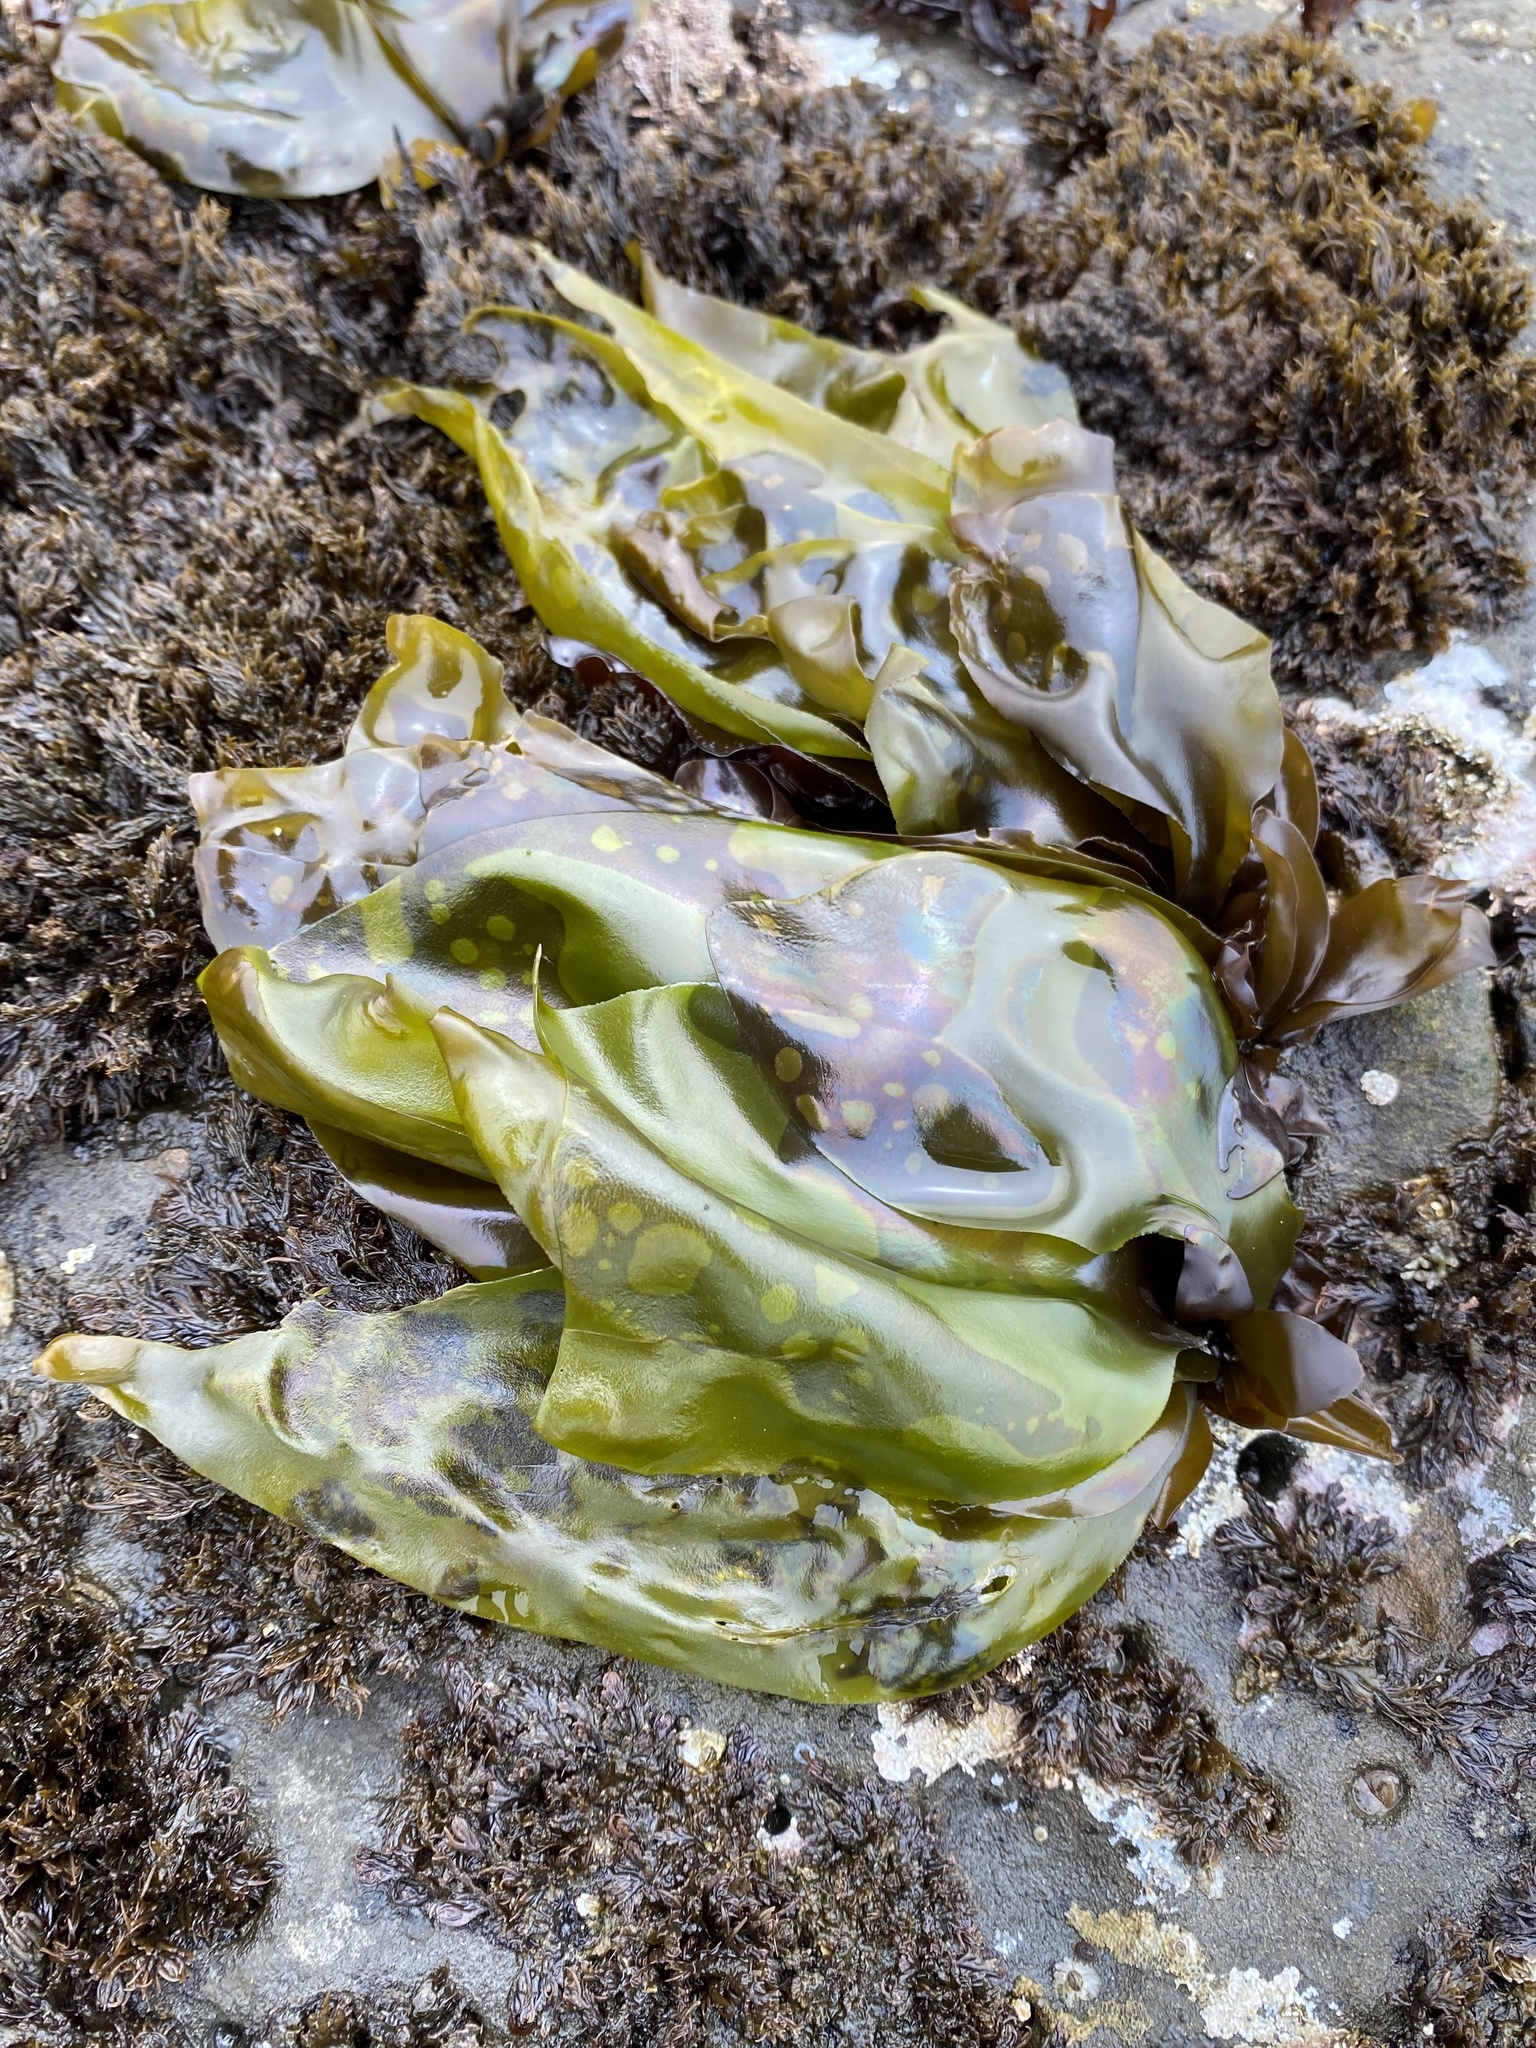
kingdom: Plantae
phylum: Rhodophyta
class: Florideophyceae
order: Gigartinales
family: Gigartinaceae
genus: Mazzaella
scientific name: Mazzaella flaccida
